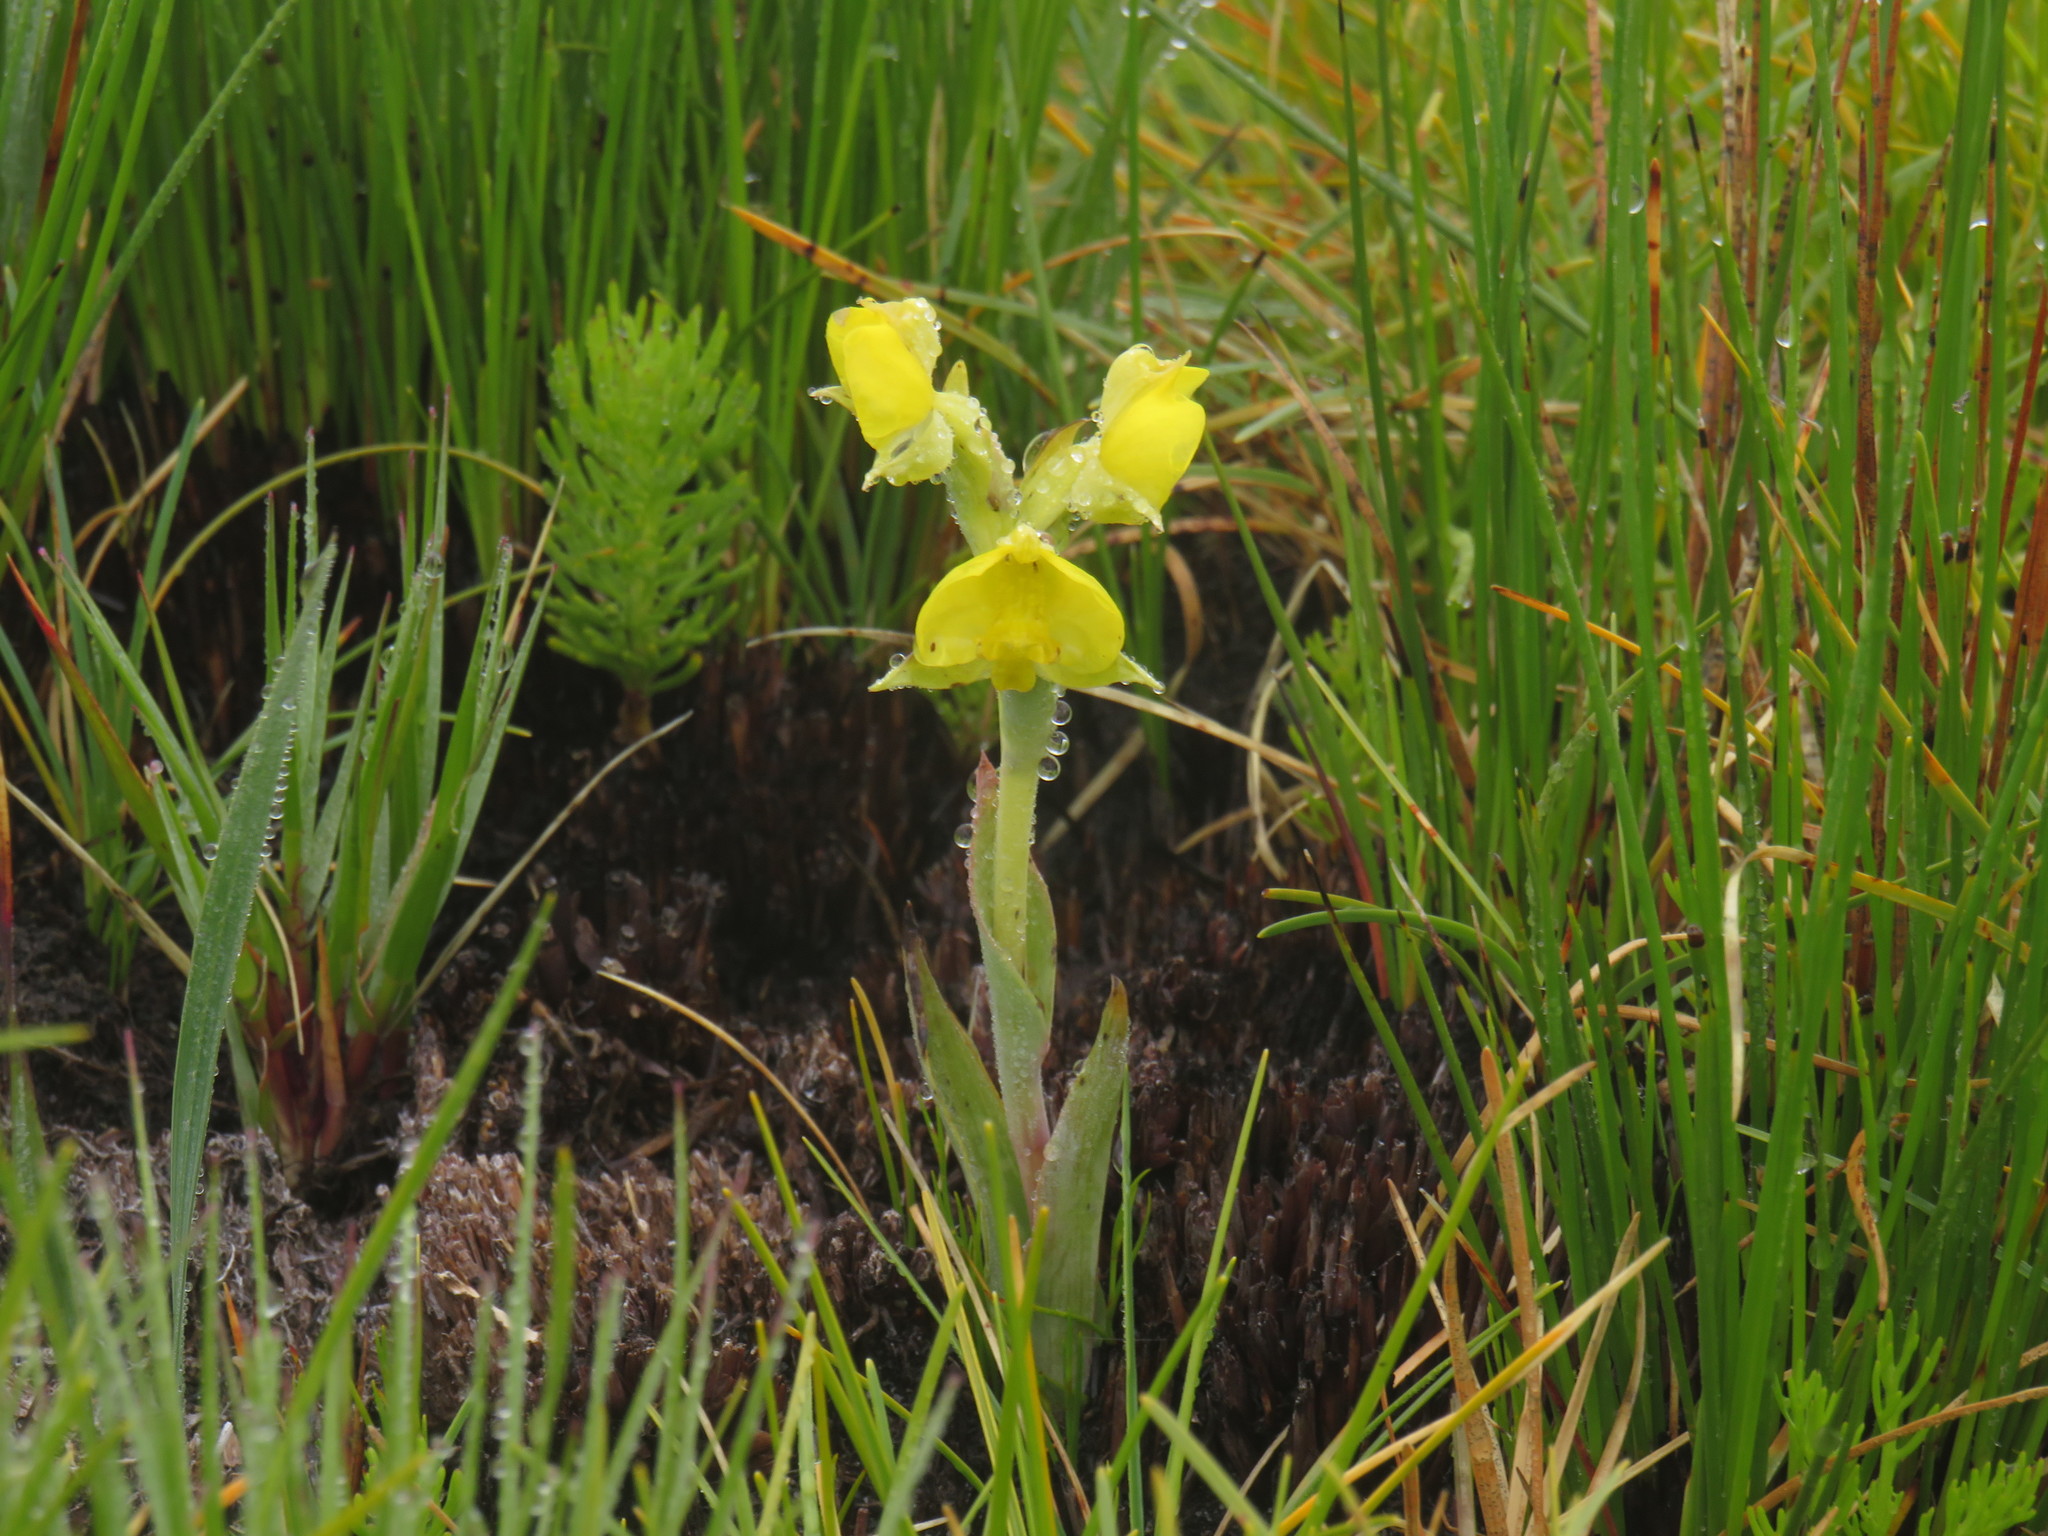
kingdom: Plantae
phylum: Tracheophyta
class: Liliopsida
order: Asparagales
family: Orchidaceae
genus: Pterygodium
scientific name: Pterygodium acutifolium
